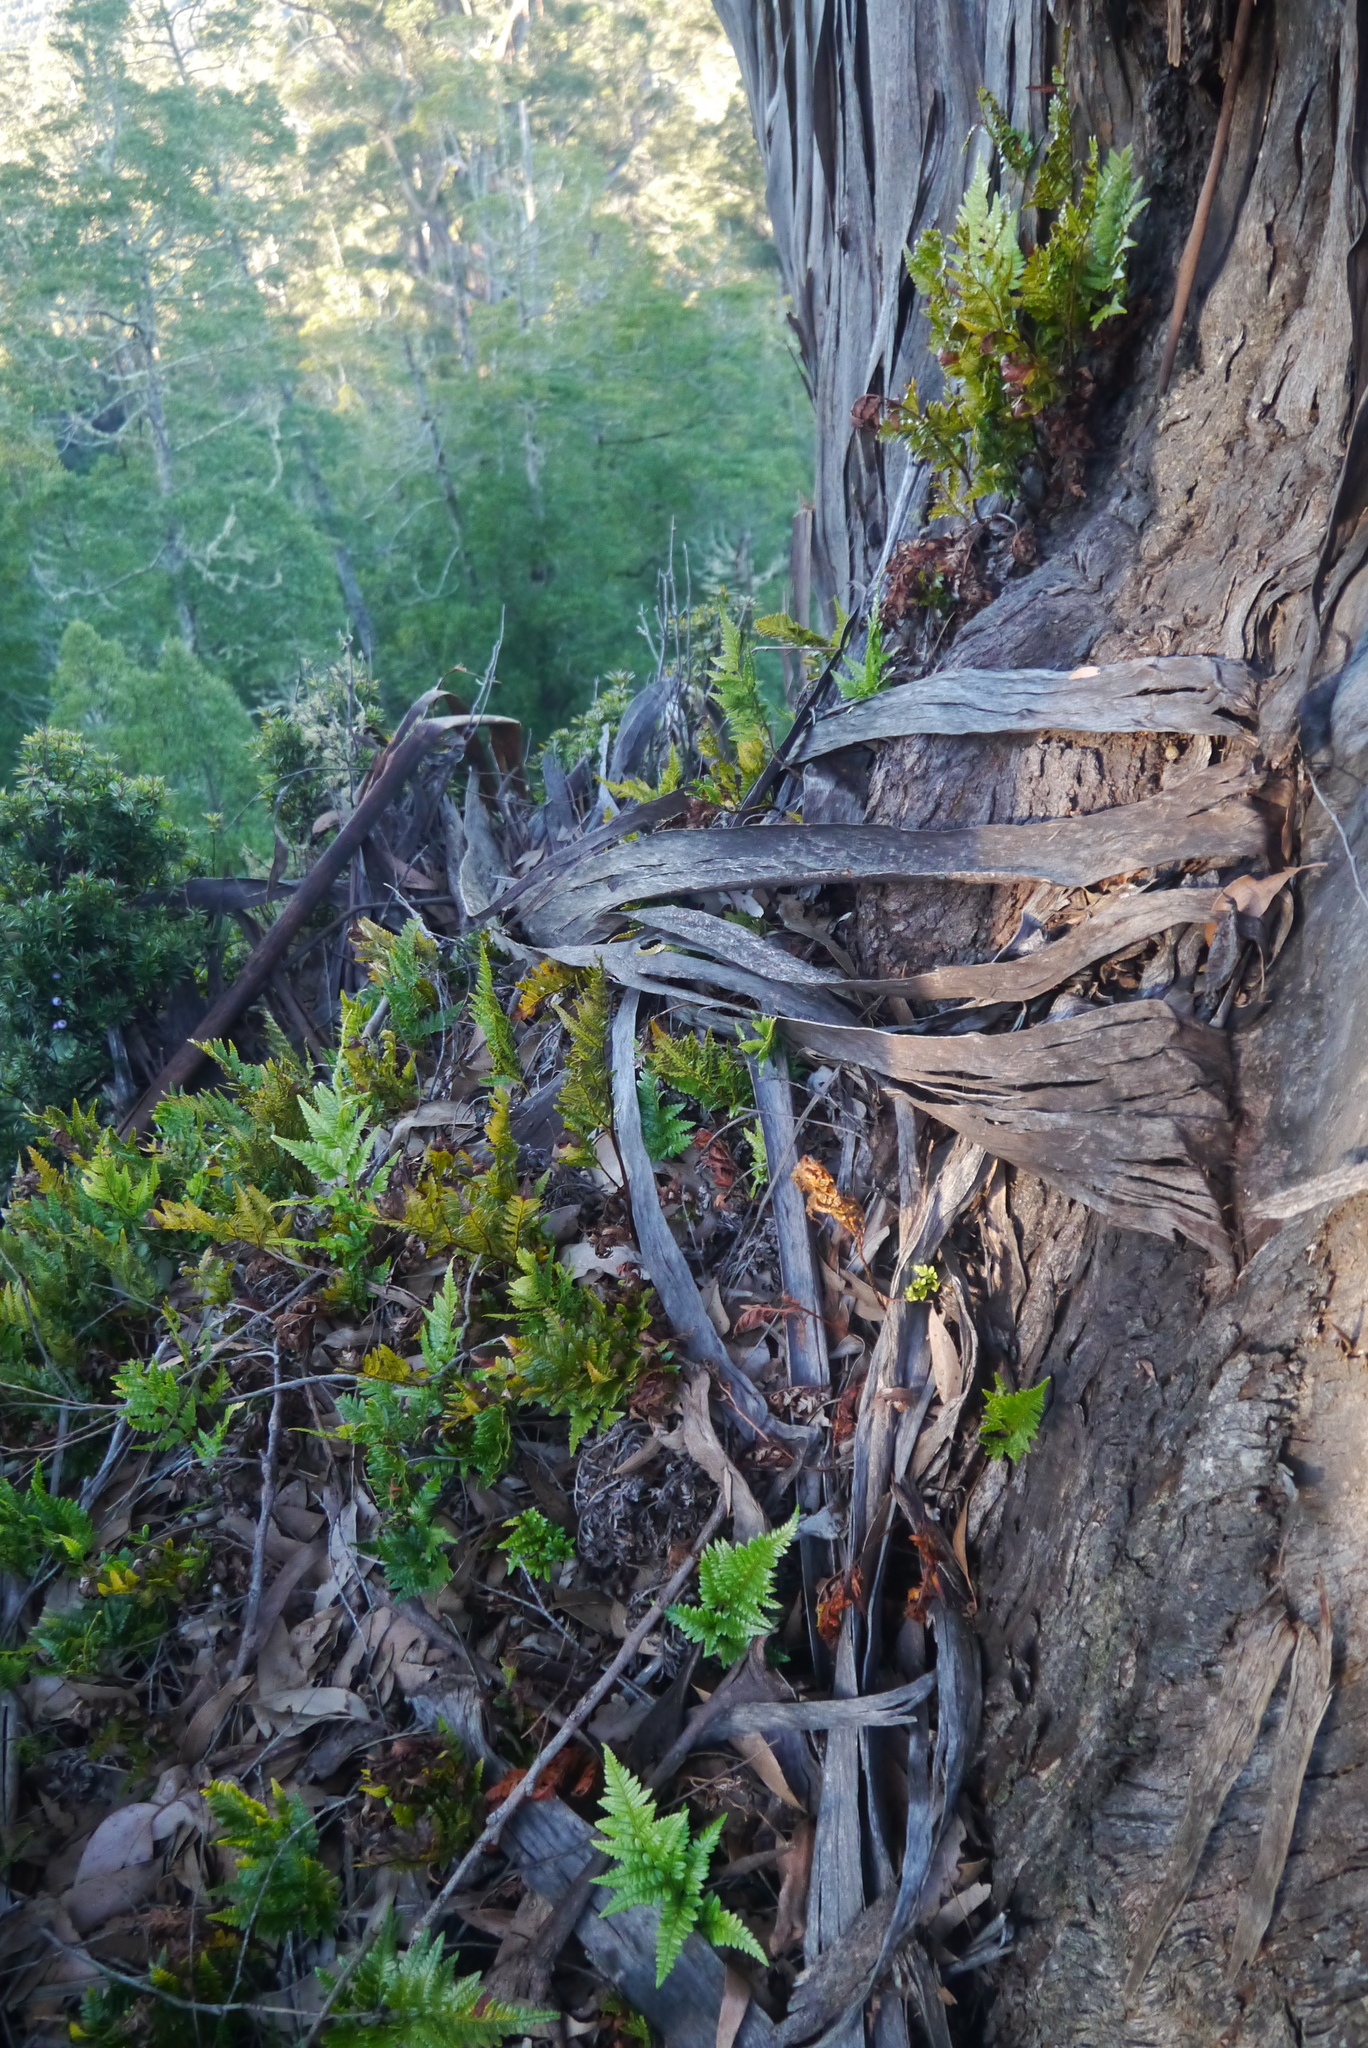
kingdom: Plantae
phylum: Tracheophyta
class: Polypodiopsida
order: Polypodiales
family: Dryopteridaceae
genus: Rumohra
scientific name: Rumohra adiantiformis
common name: Leather fern
